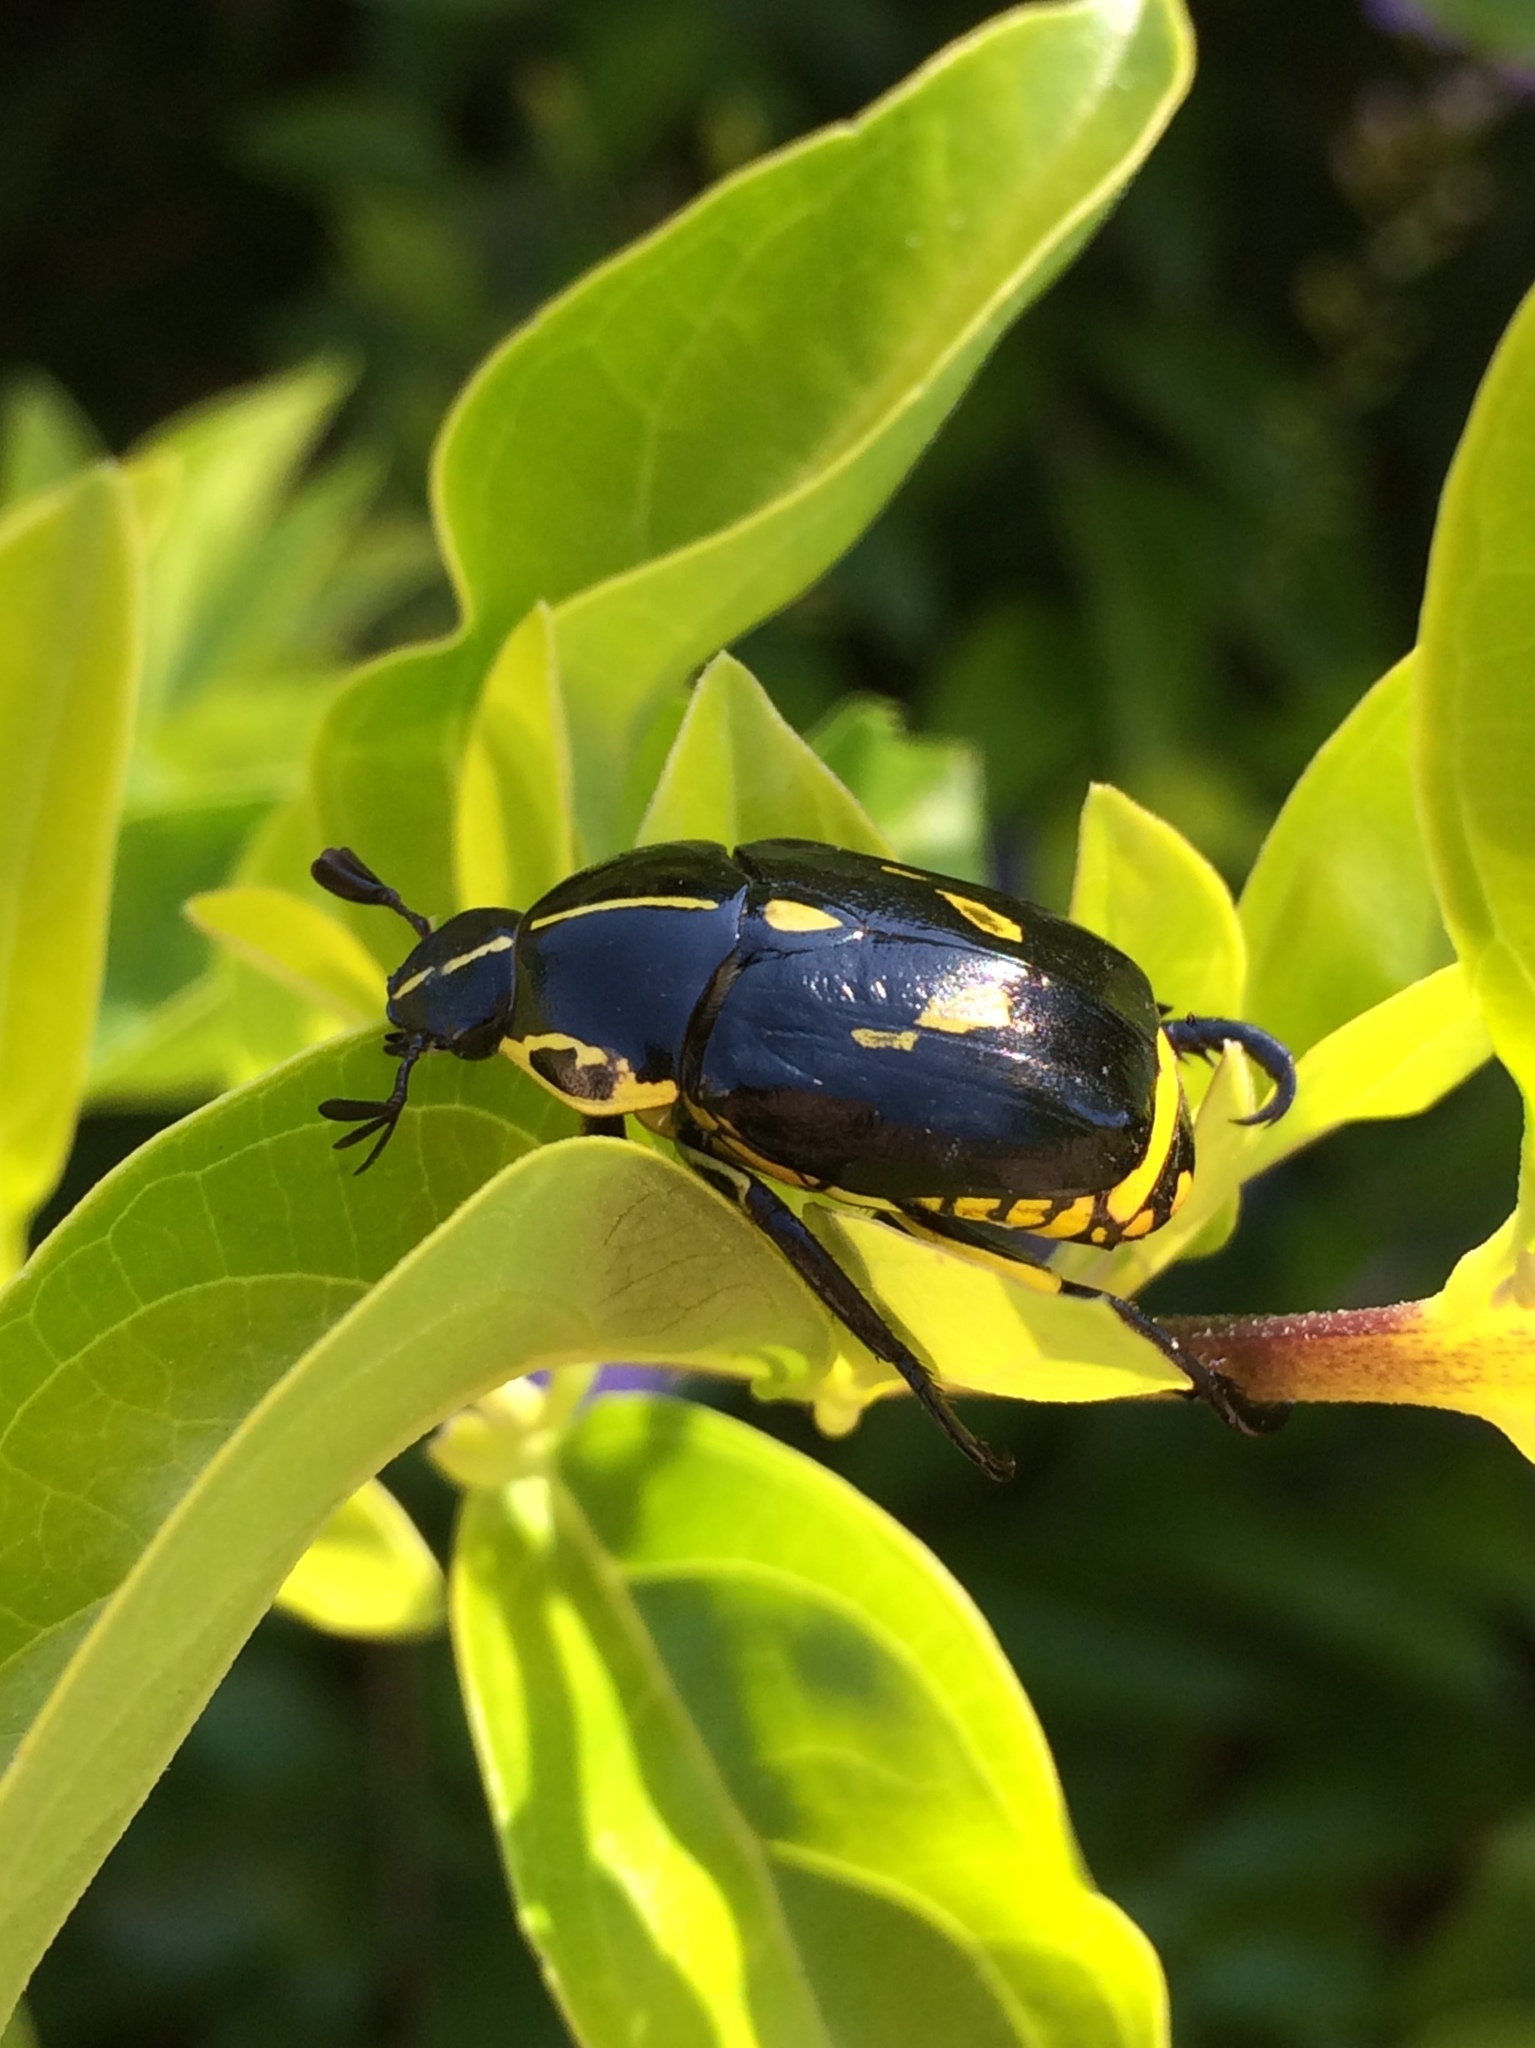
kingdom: Animalia
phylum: Arthropoda
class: Insecta
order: Coleoptera
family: Scarabaeidae
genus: Rutela
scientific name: Rutela lineola
